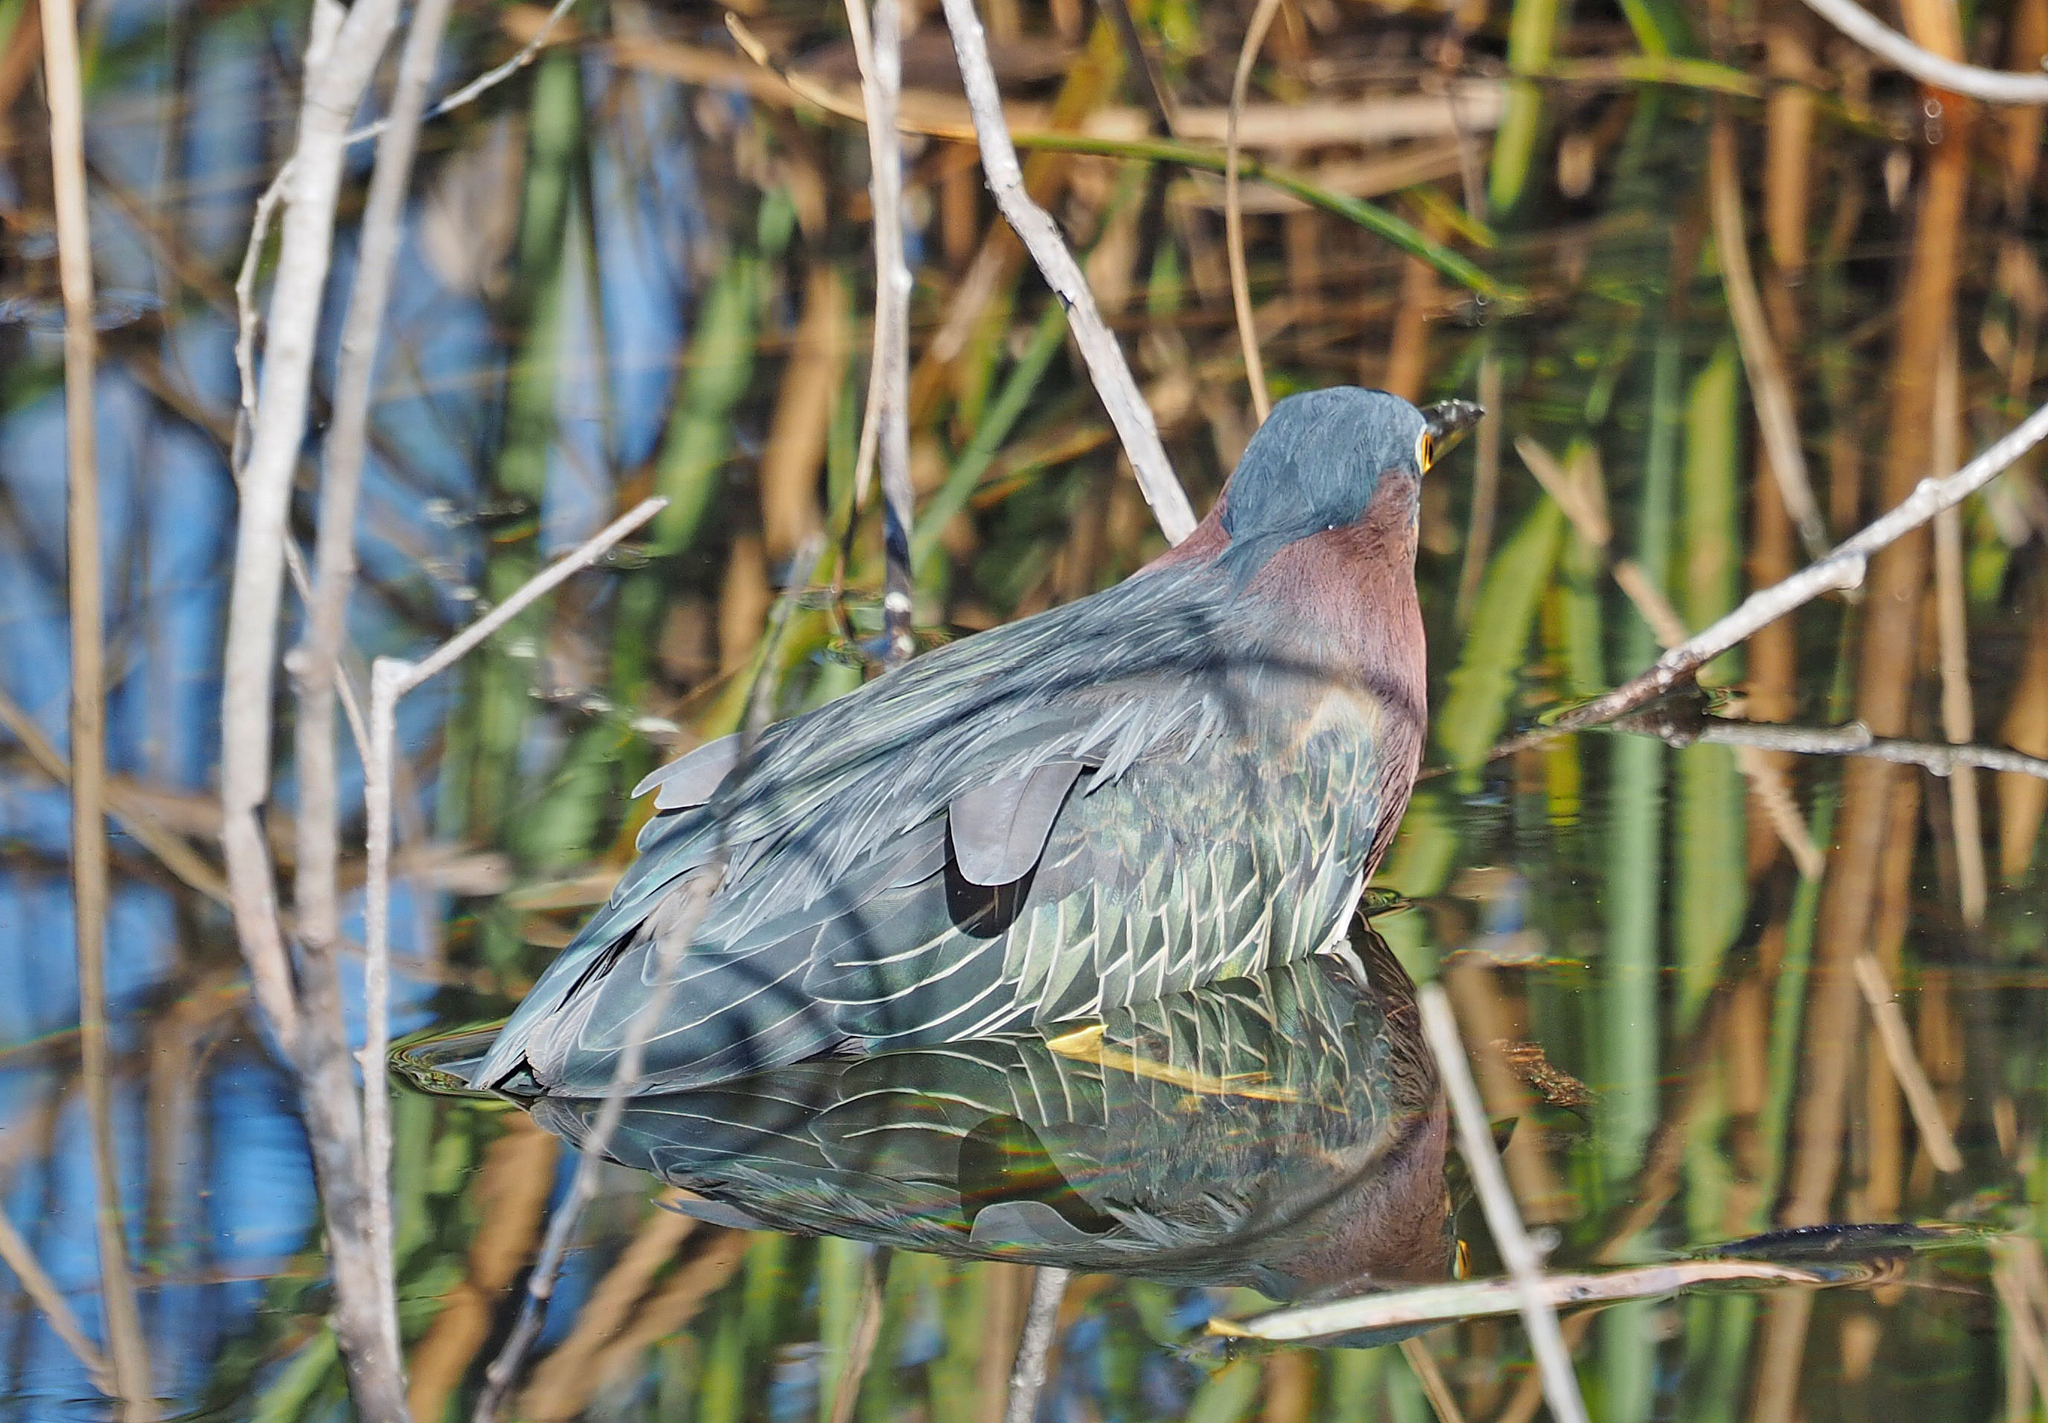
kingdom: Animalia
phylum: Chordata
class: Aves
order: Pelecaniformes
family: Ardeidae
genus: Butorides
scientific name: Butorides virescens
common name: Green heron
